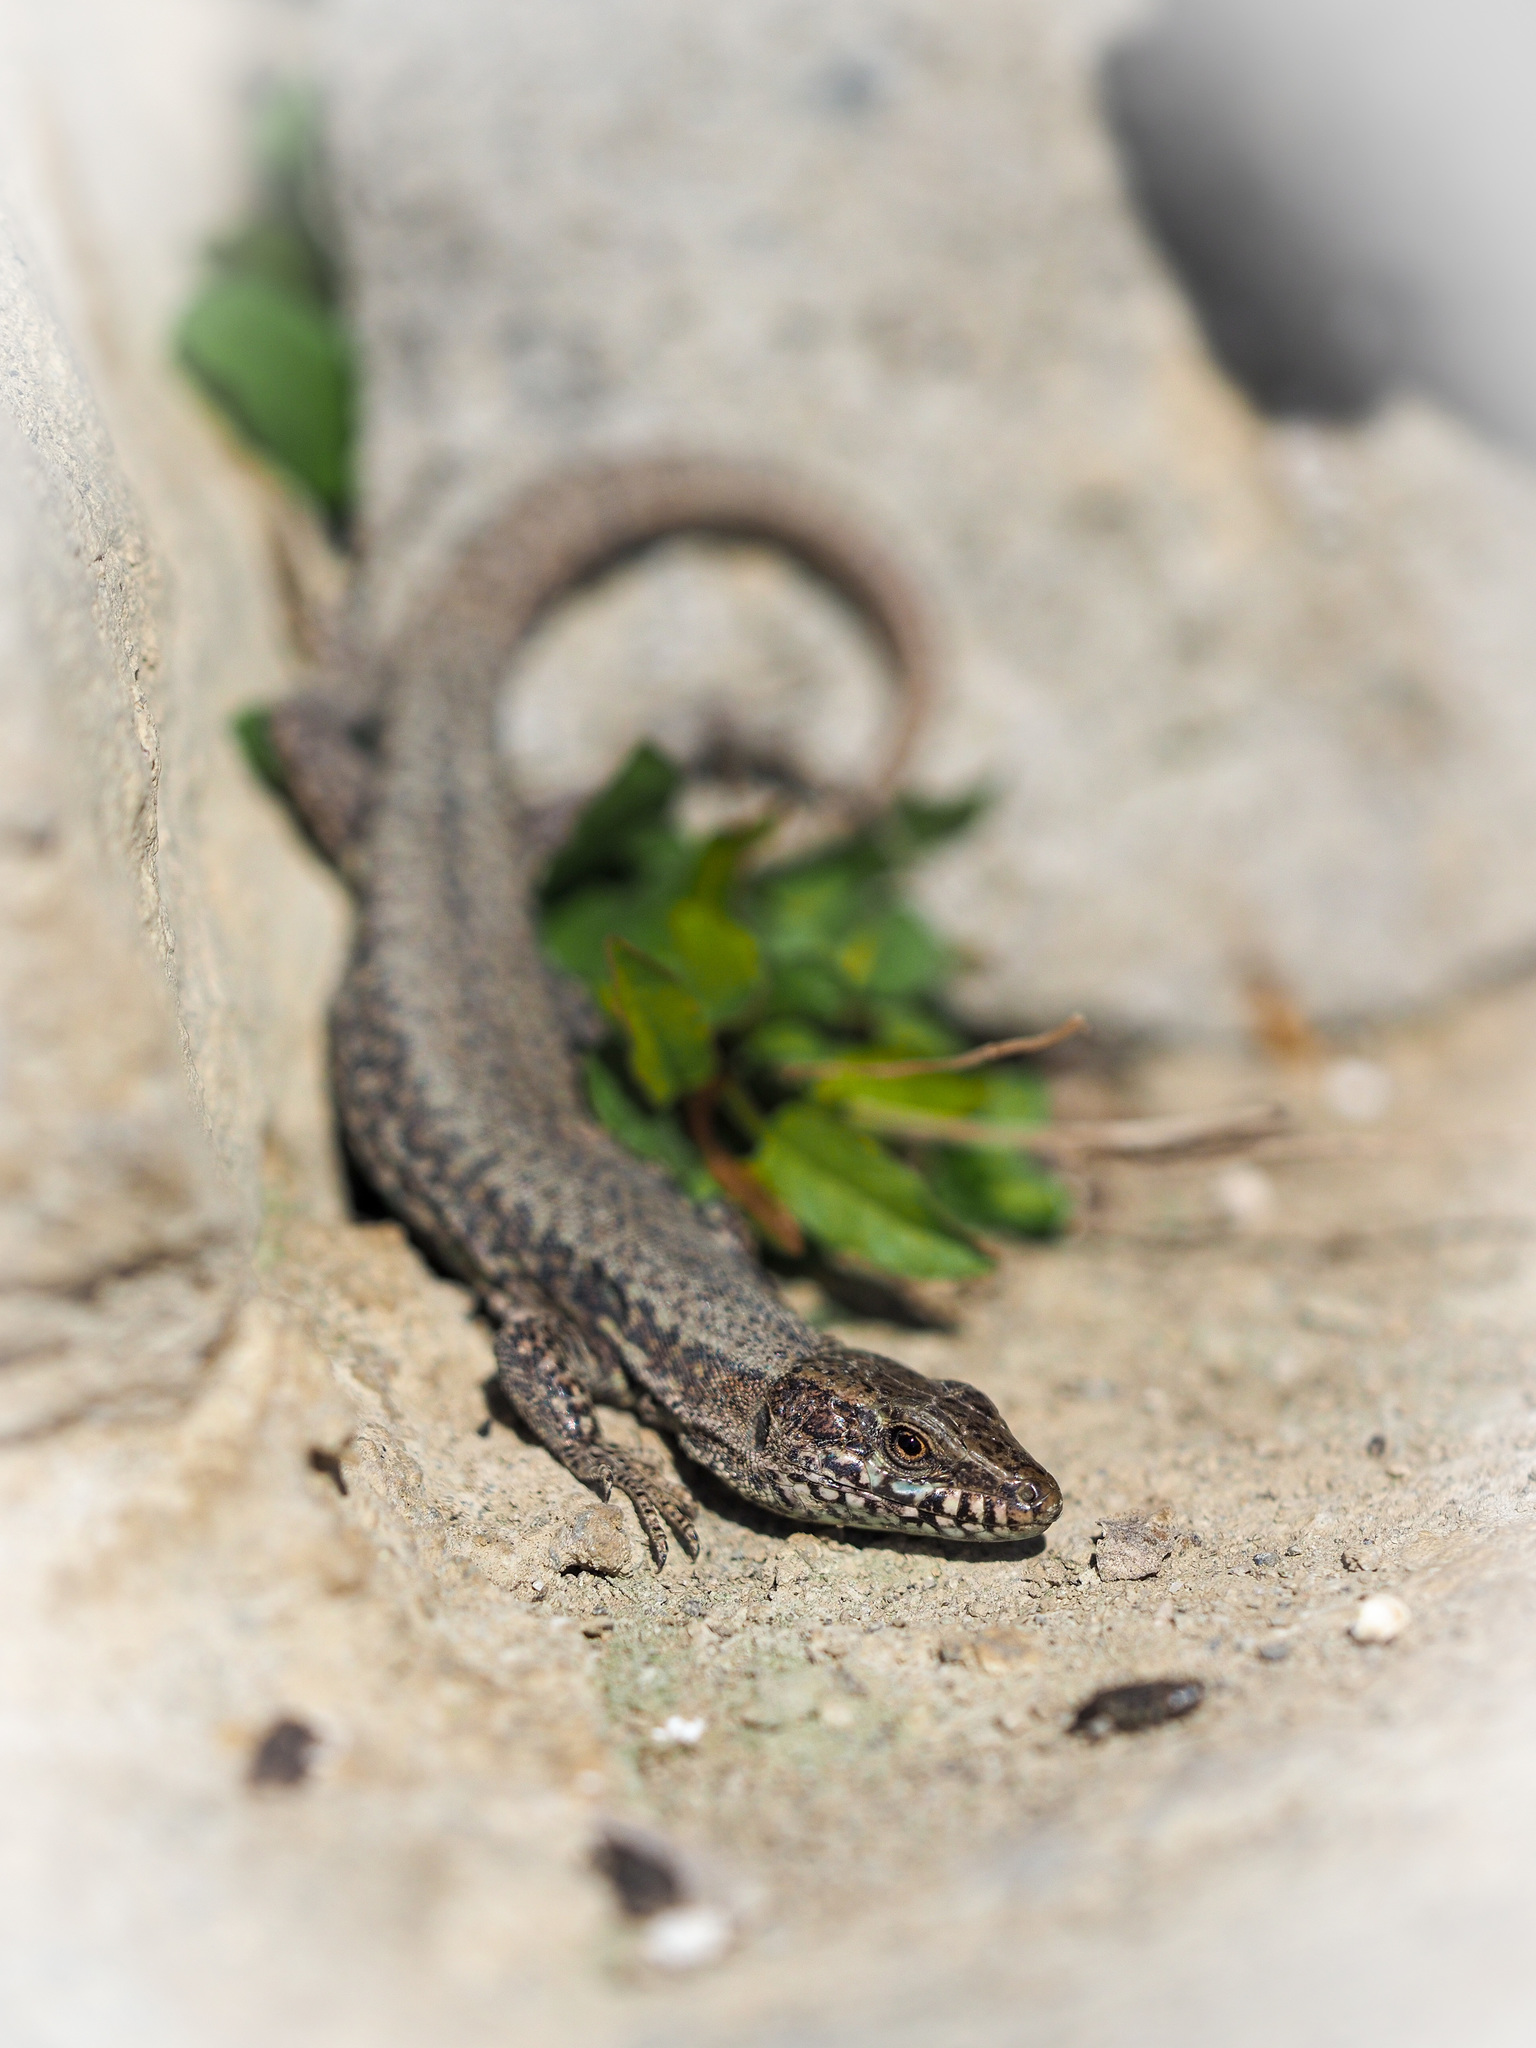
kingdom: Animalia
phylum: Chordata
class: Squamata
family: Lacertidae
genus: Podarcis
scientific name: Podarcis muralis
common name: Common wall lizard
